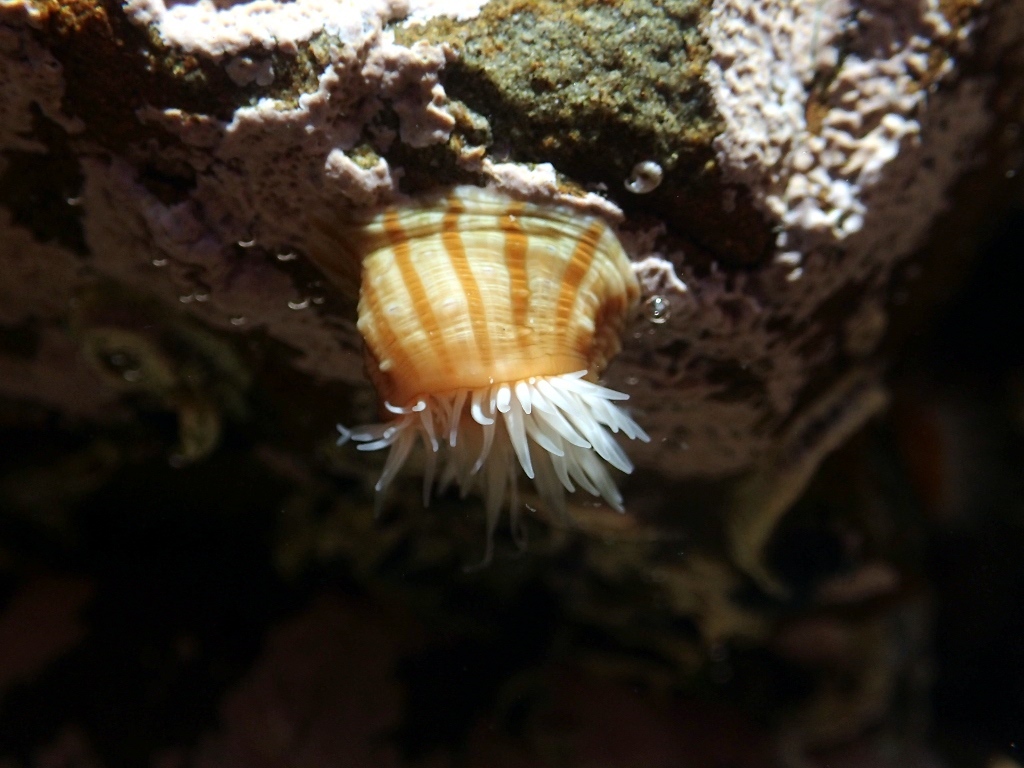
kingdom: Animalia
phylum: Cnidaria
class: Anthozoa
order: Actiniaria
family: Sagartiidae
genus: Anthothoe
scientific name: Anthothoe albocincta
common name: Orange striped anemone
